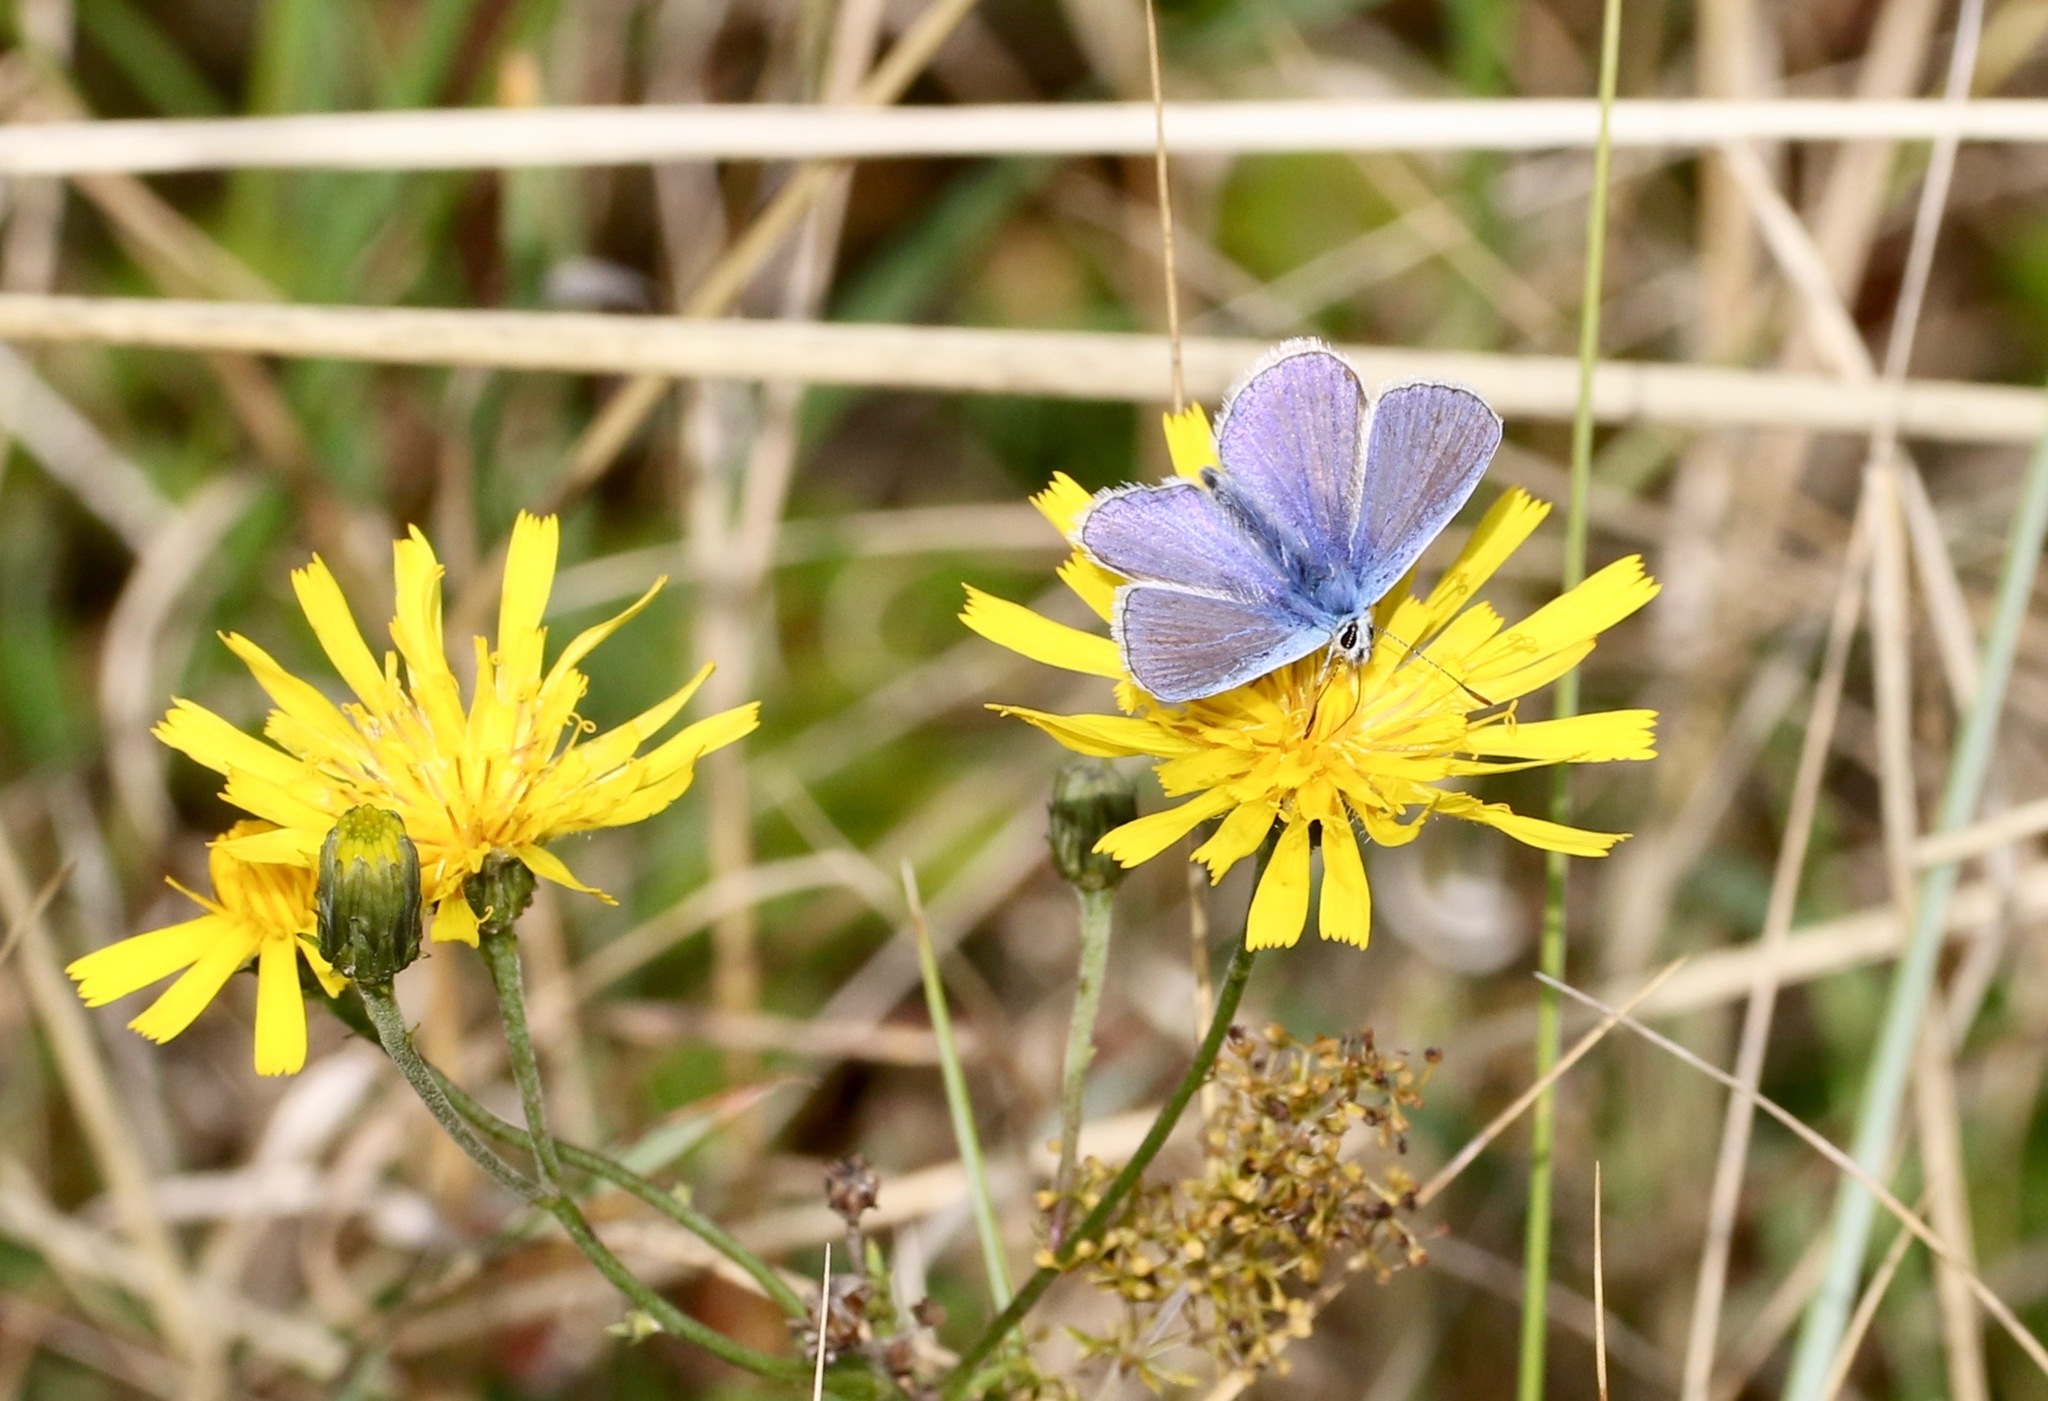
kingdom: Animalia
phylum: Arthropoda
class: Insecta
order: Lepidoptera
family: Lycaenidae
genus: Polyommatus
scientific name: Polyommatus icarus
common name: Common blue
